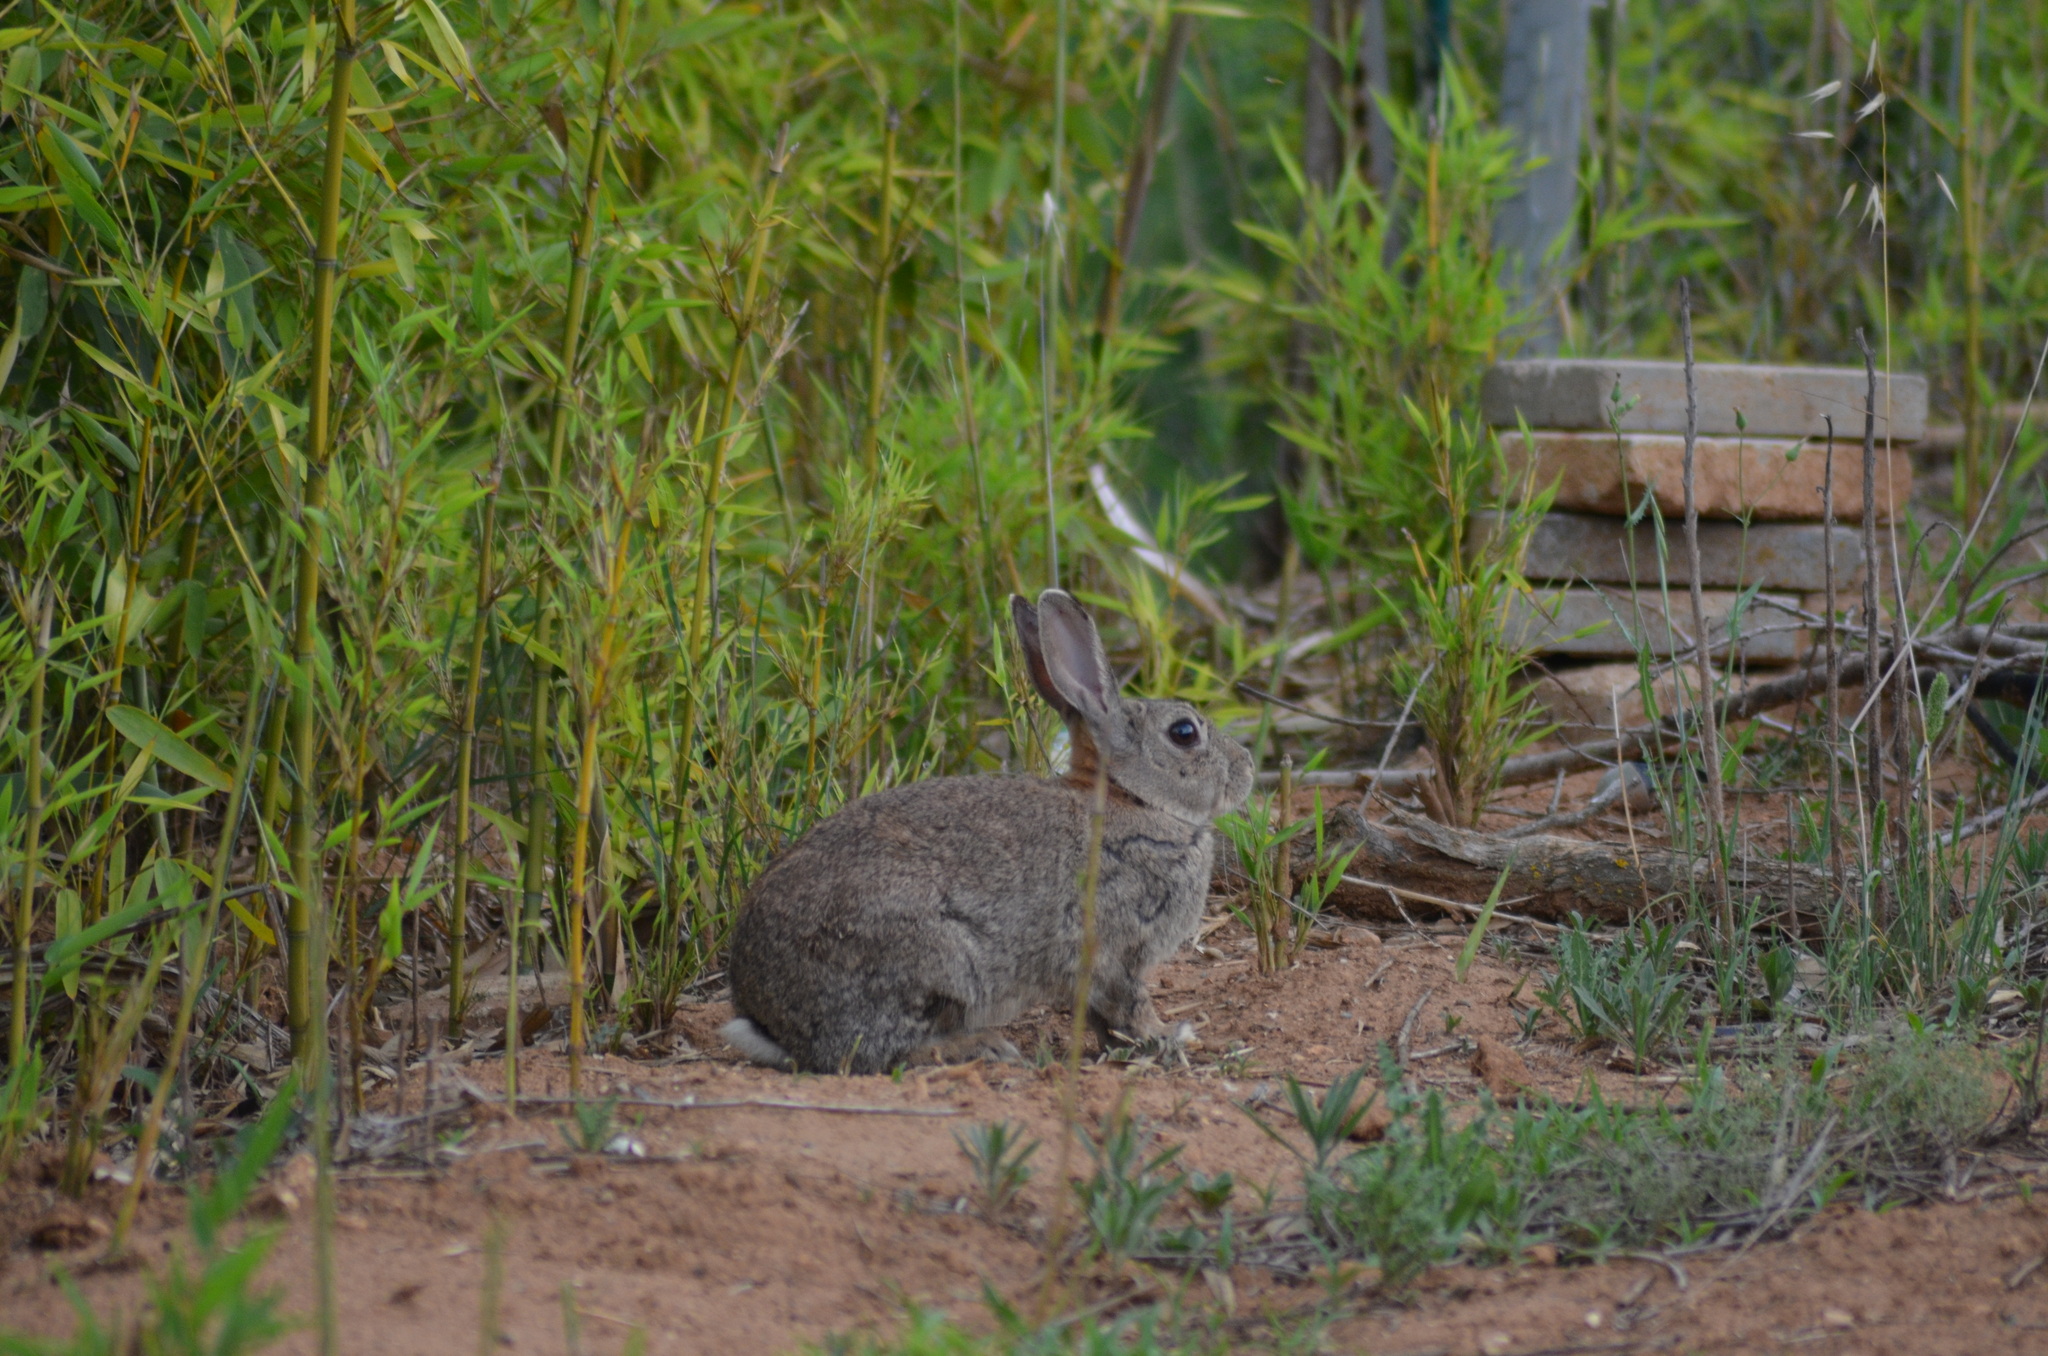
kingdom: Animalia
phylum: Chordata
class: Mammalia
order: Lagomorpha
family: Leporidae
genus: Oryctolagus
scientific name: Oryctolagus cuniculus
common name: European rabbit
